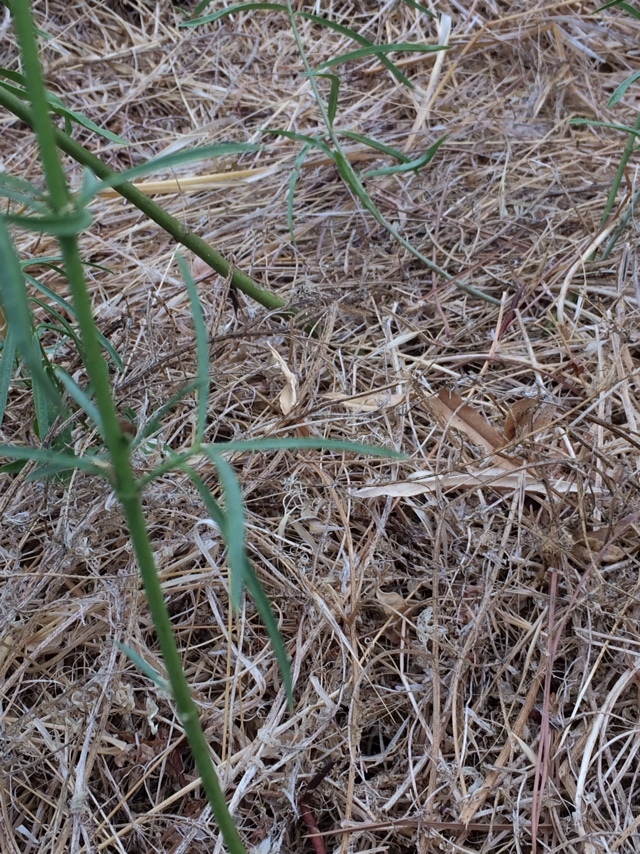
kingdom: Plantae
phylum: Tracheophyta
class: Magnoliopsida
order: Gentianales
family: Apocynaceae
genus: Asclepias
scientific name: Asclepias fascicularis
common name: Mexican milkweed
